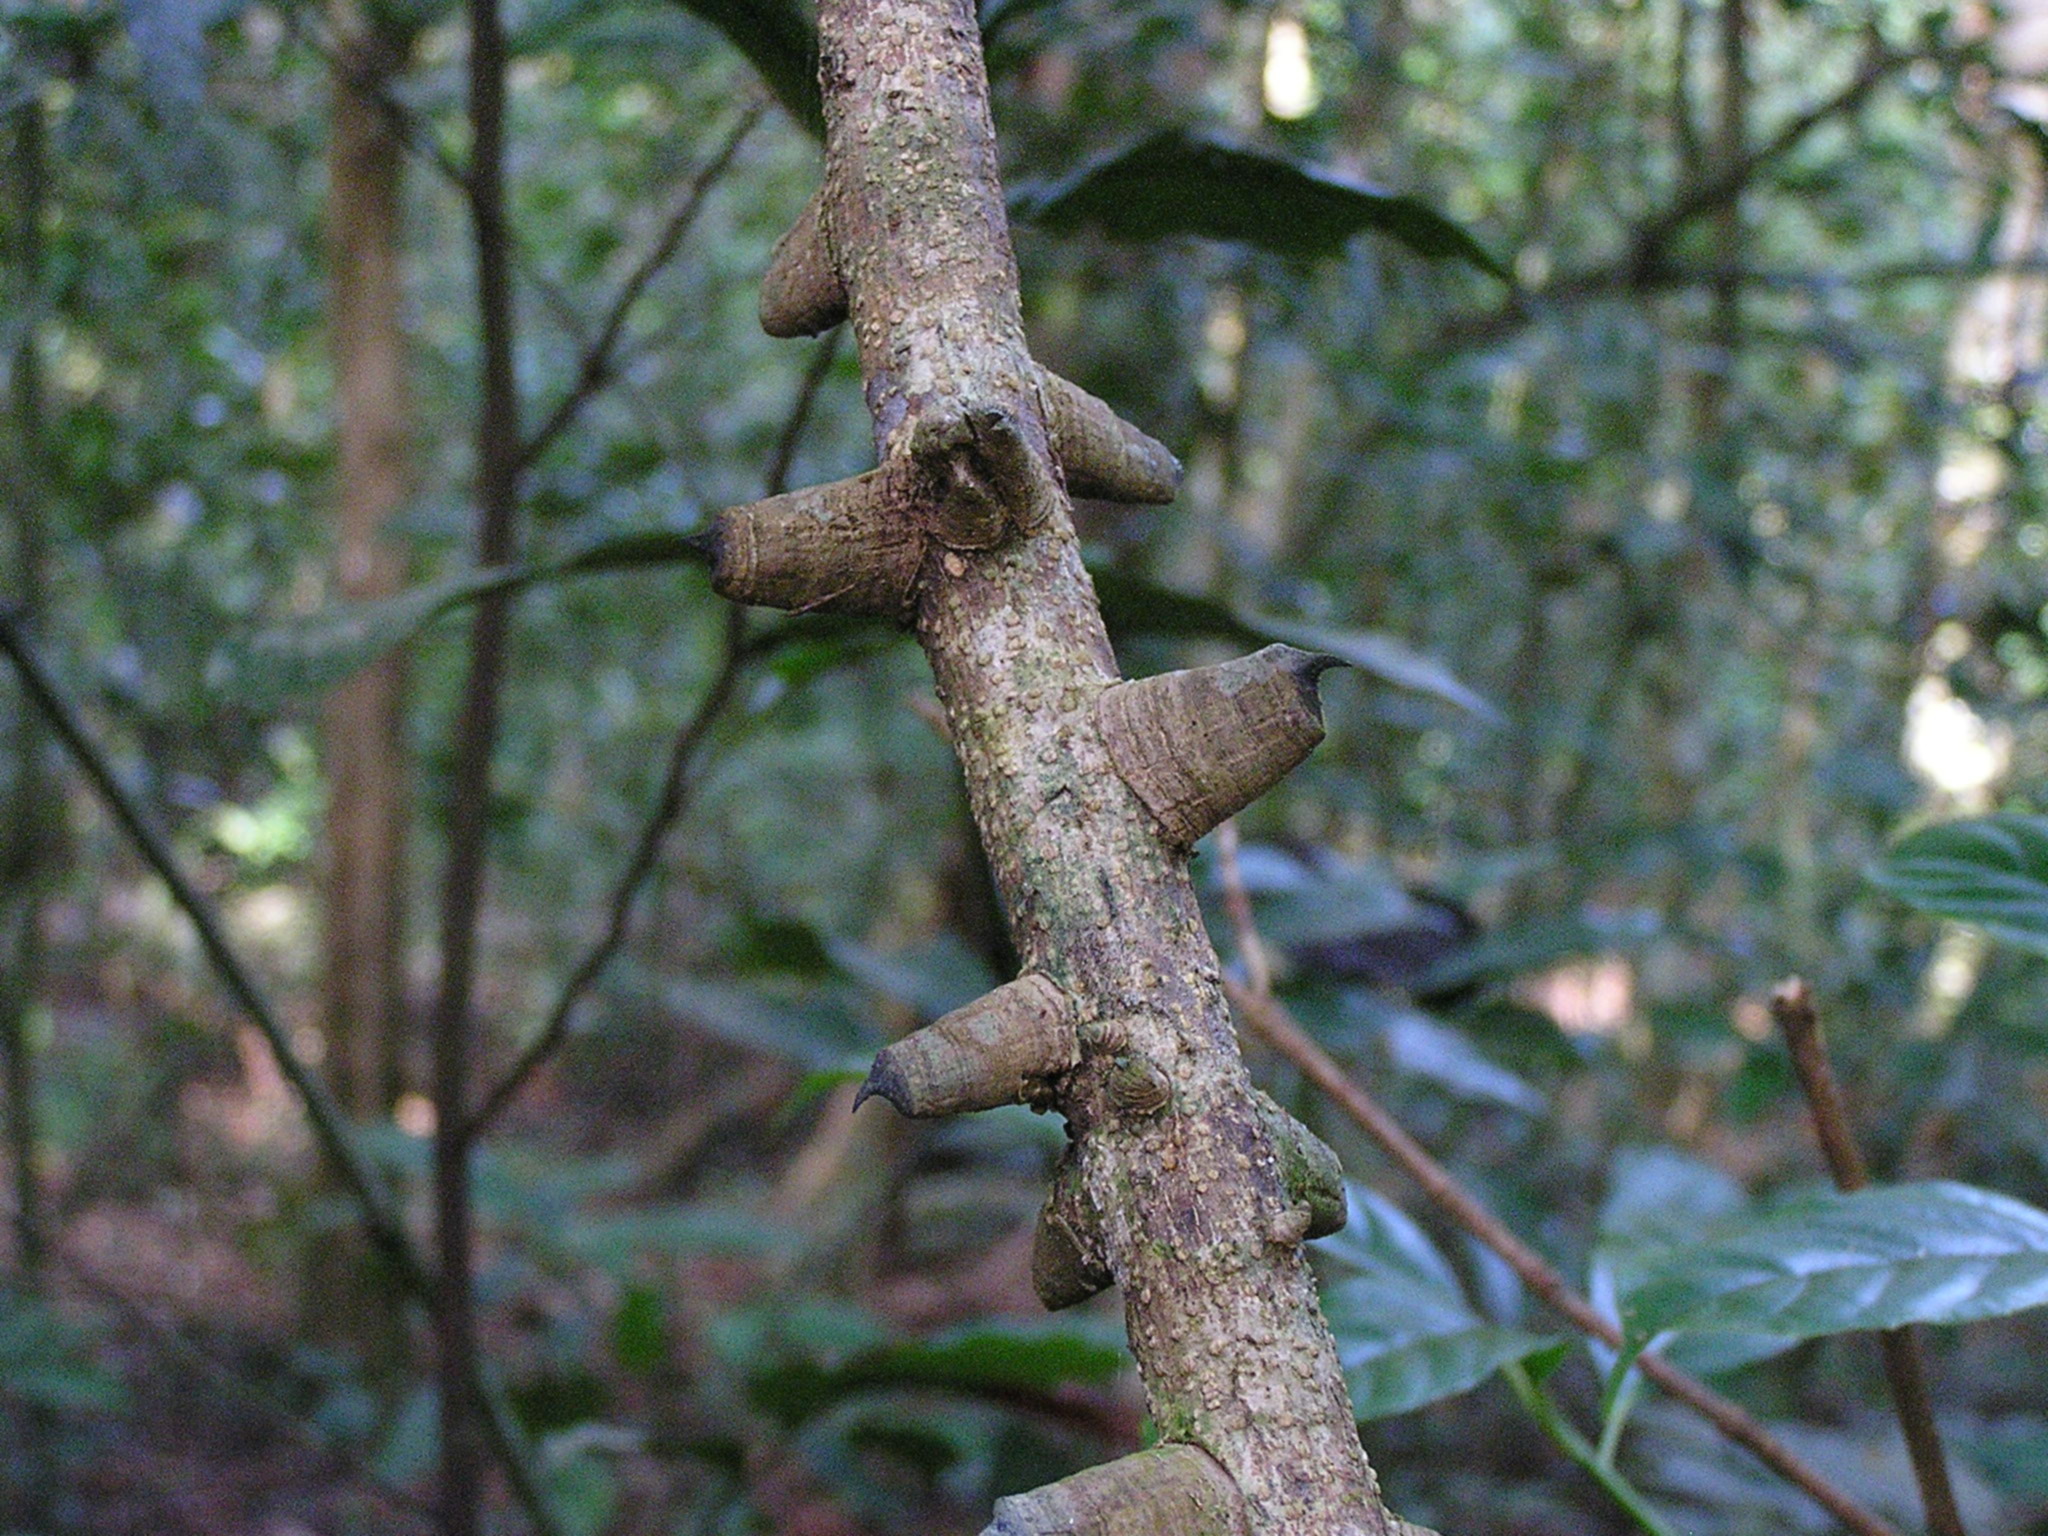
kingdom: Plantae
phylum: Tracheophyta
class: Magnoliopsida
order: Fabales
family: Fabaceae
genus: Mezoneuron
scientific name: Mezoneuron sumatranum
